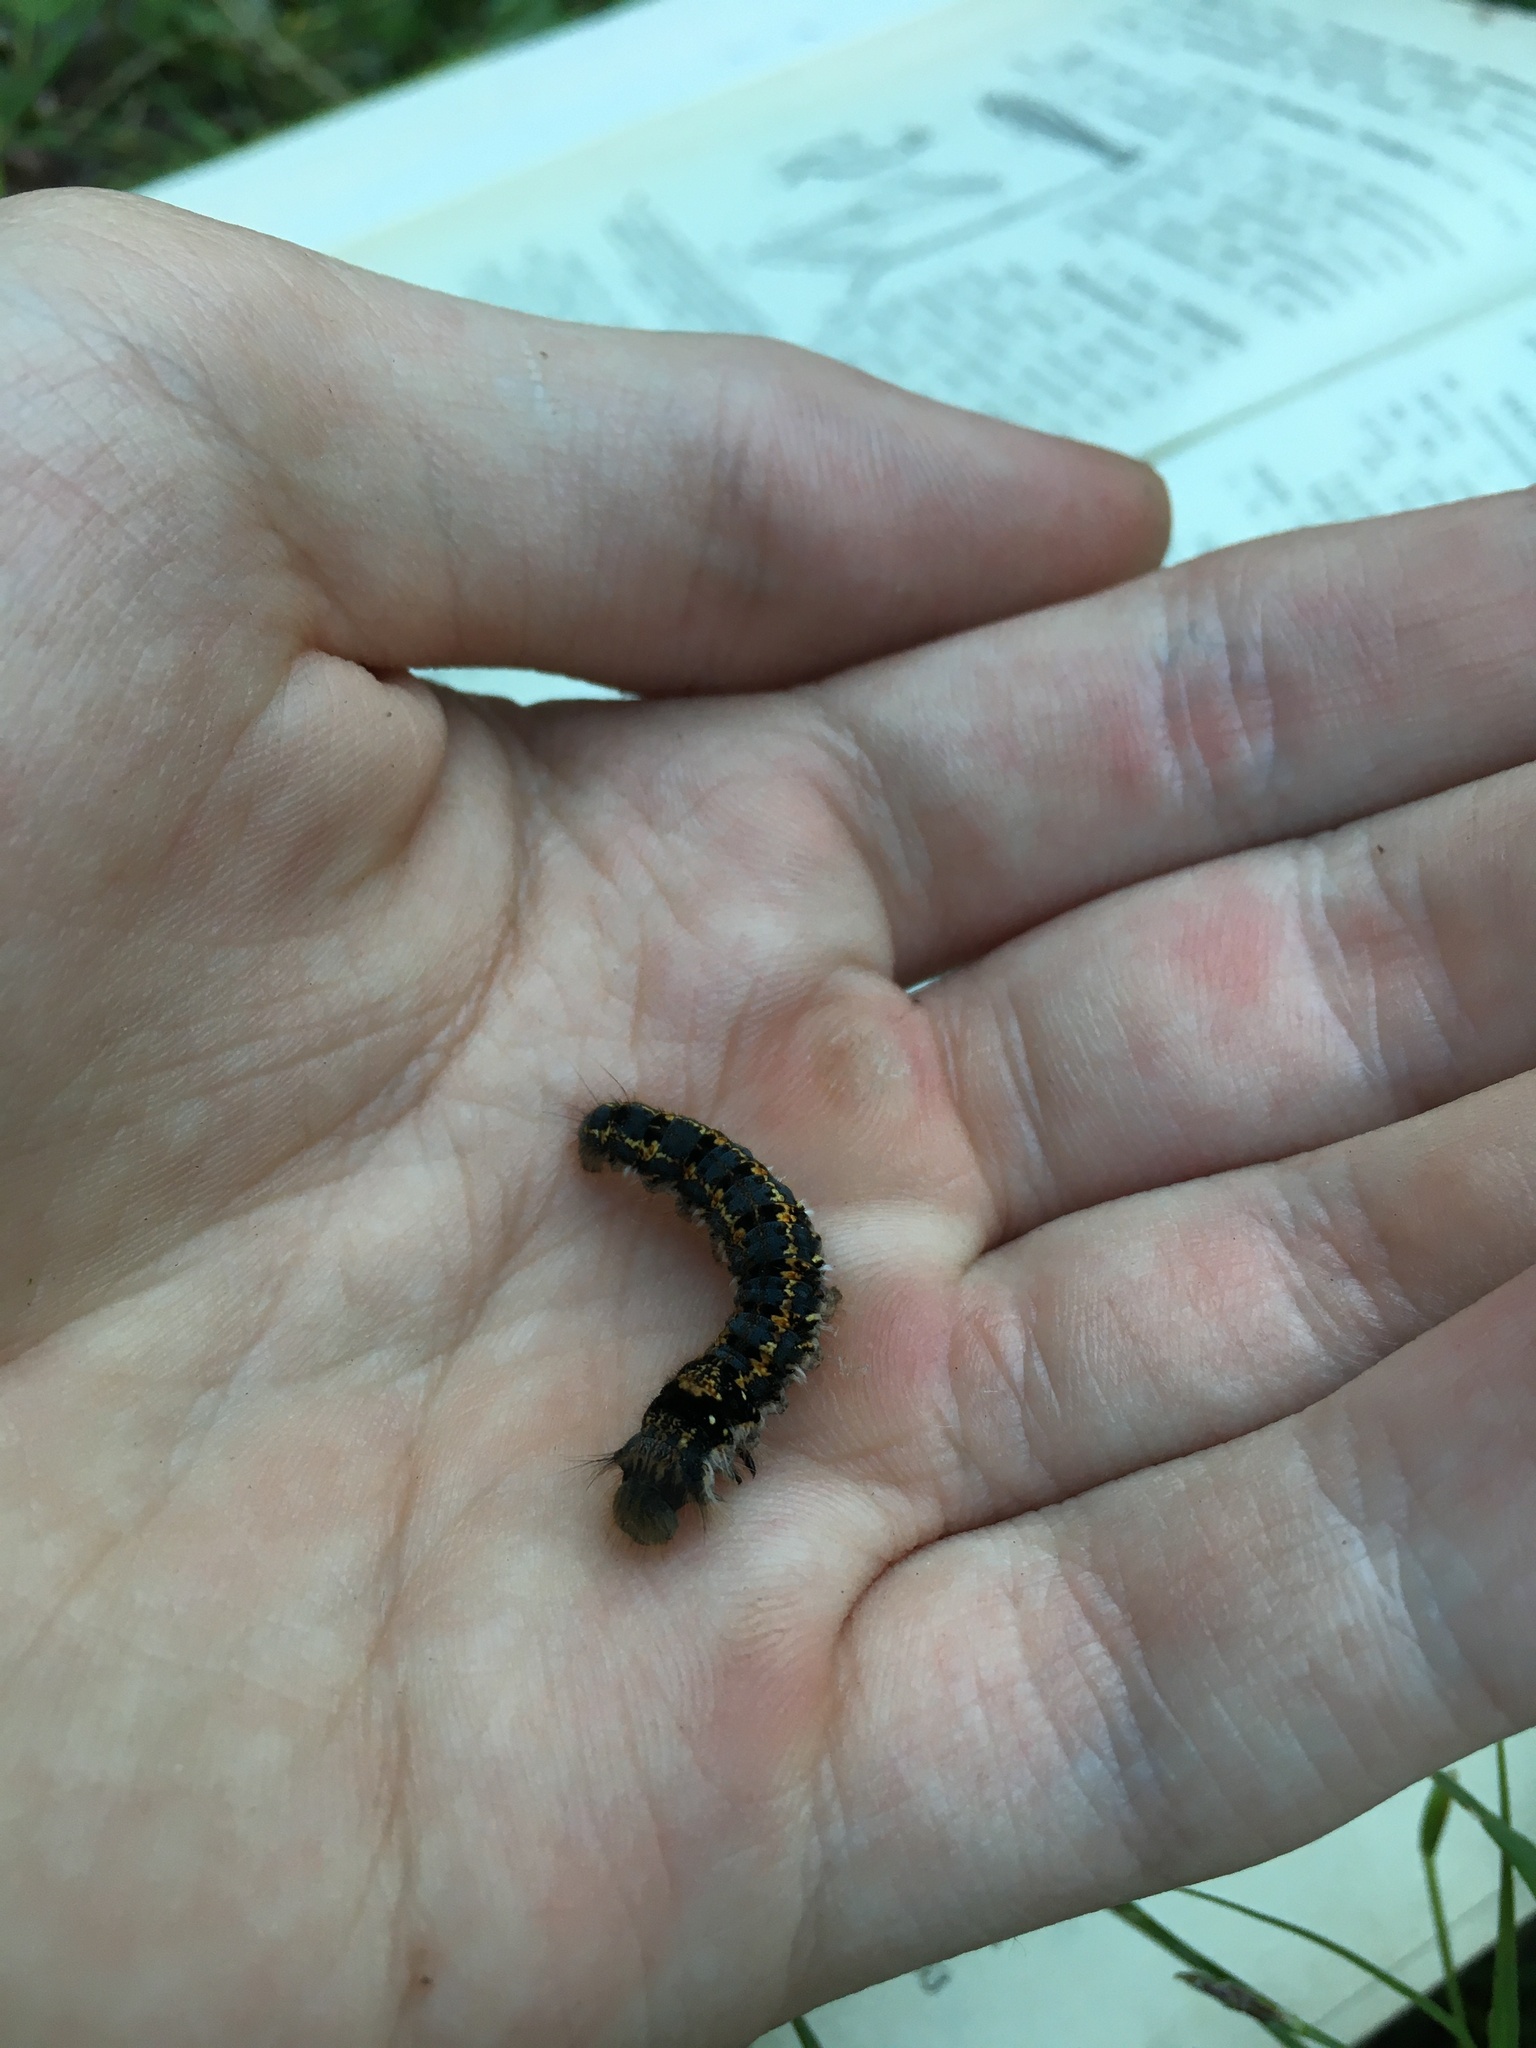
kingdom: Animalia
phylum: Arthropoda
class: Insecta
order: Lepidoptera
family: Lasiocampidae
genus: Euthrix
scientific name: Euthrix potatoria
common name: Drinker
